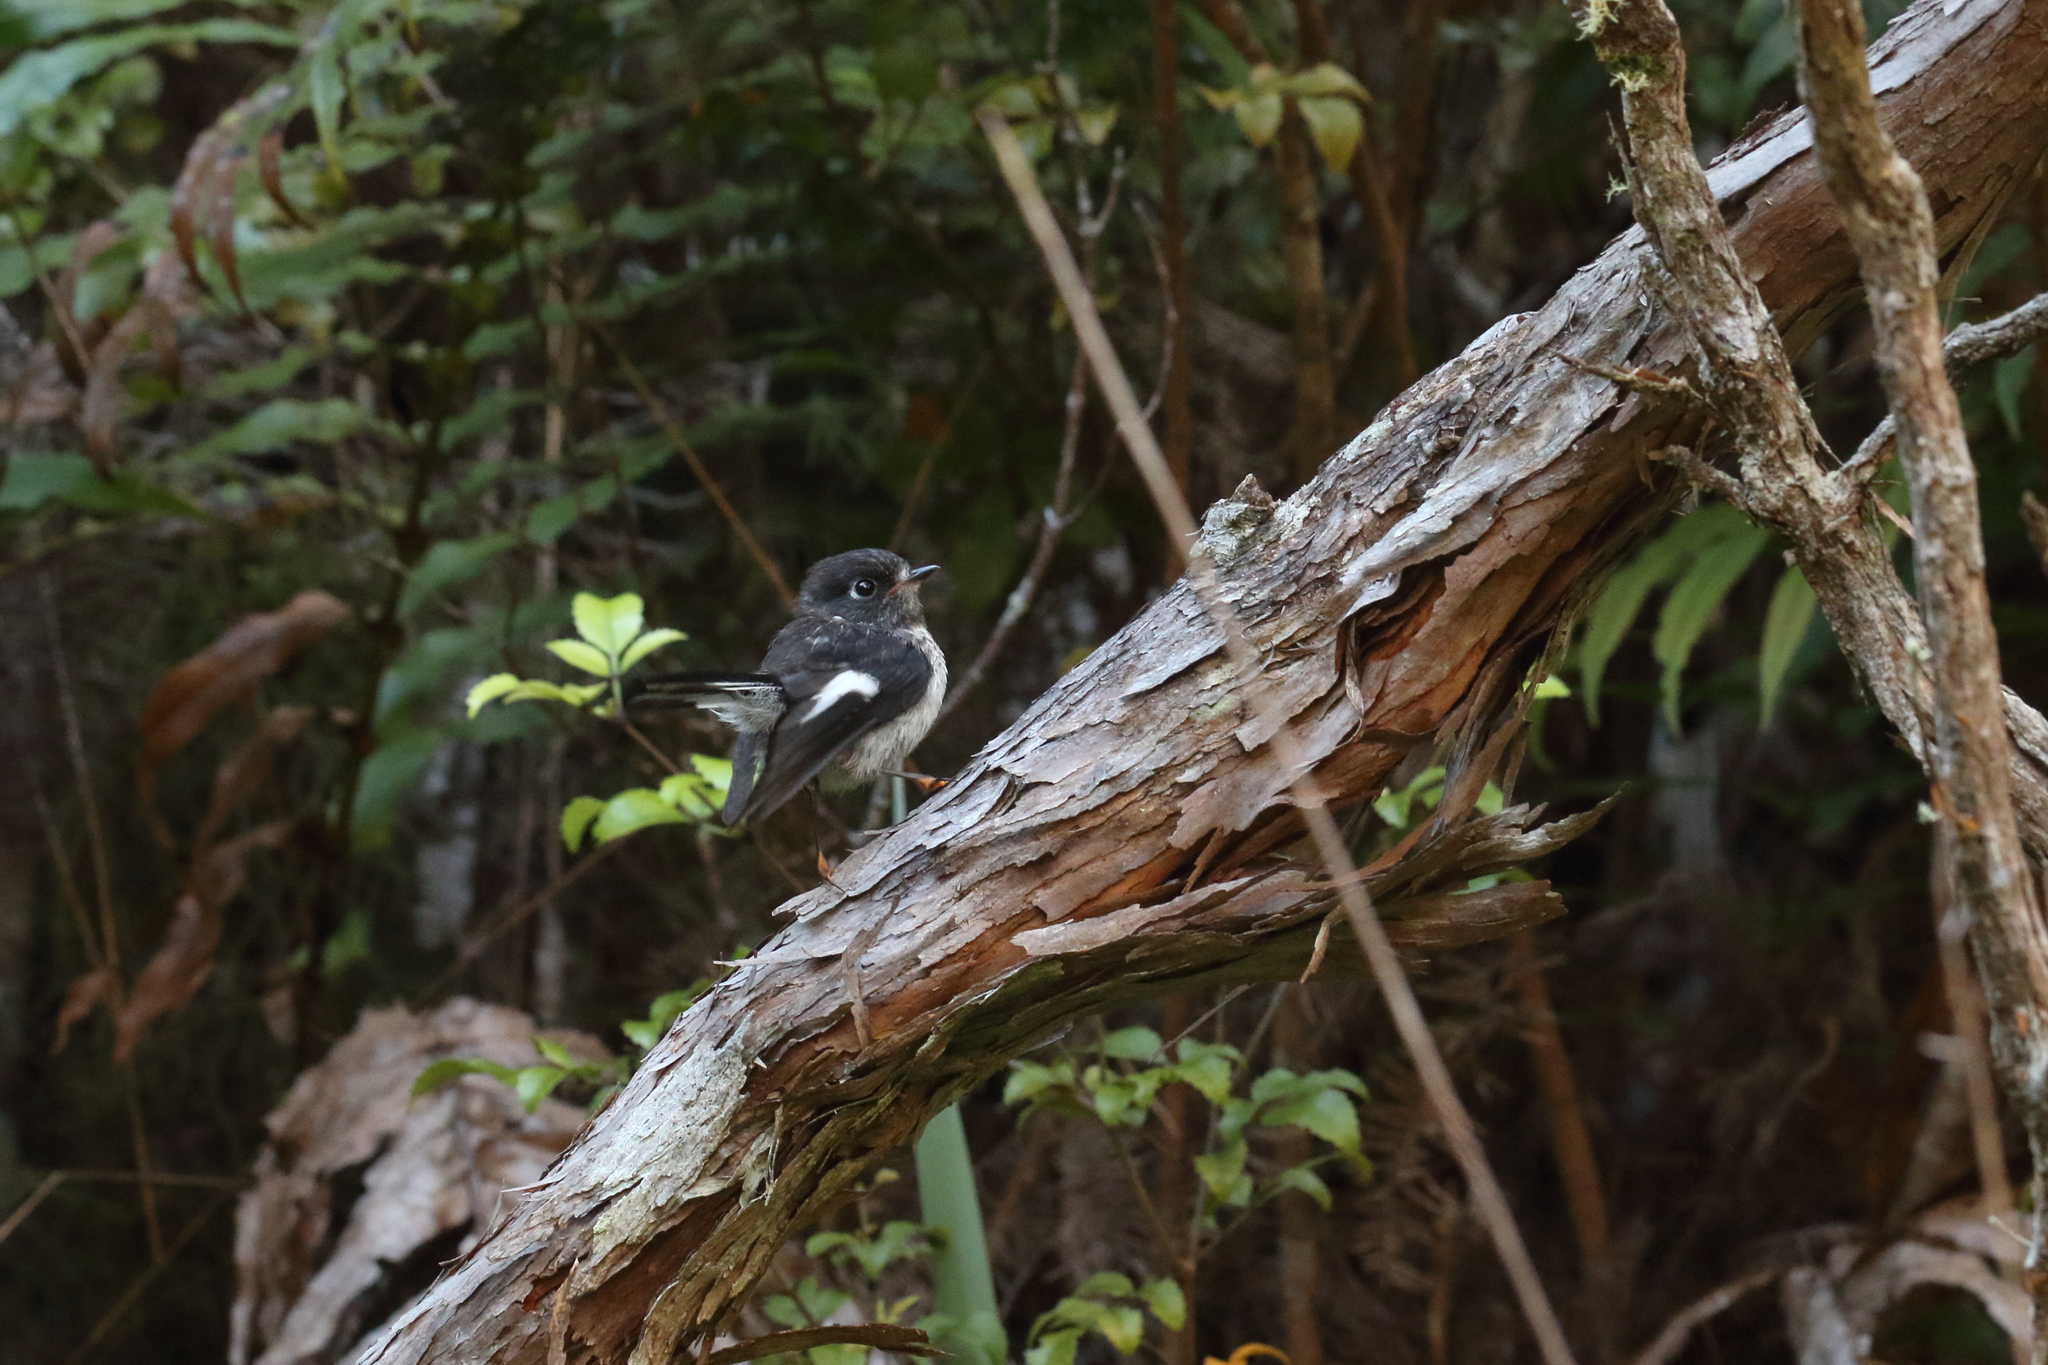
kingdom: Animalia
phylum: Chordata
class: Aves
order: Passeriformes
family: Petroicidae
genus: Petroica
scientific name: Petroica macrocephala
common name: Tomtit
